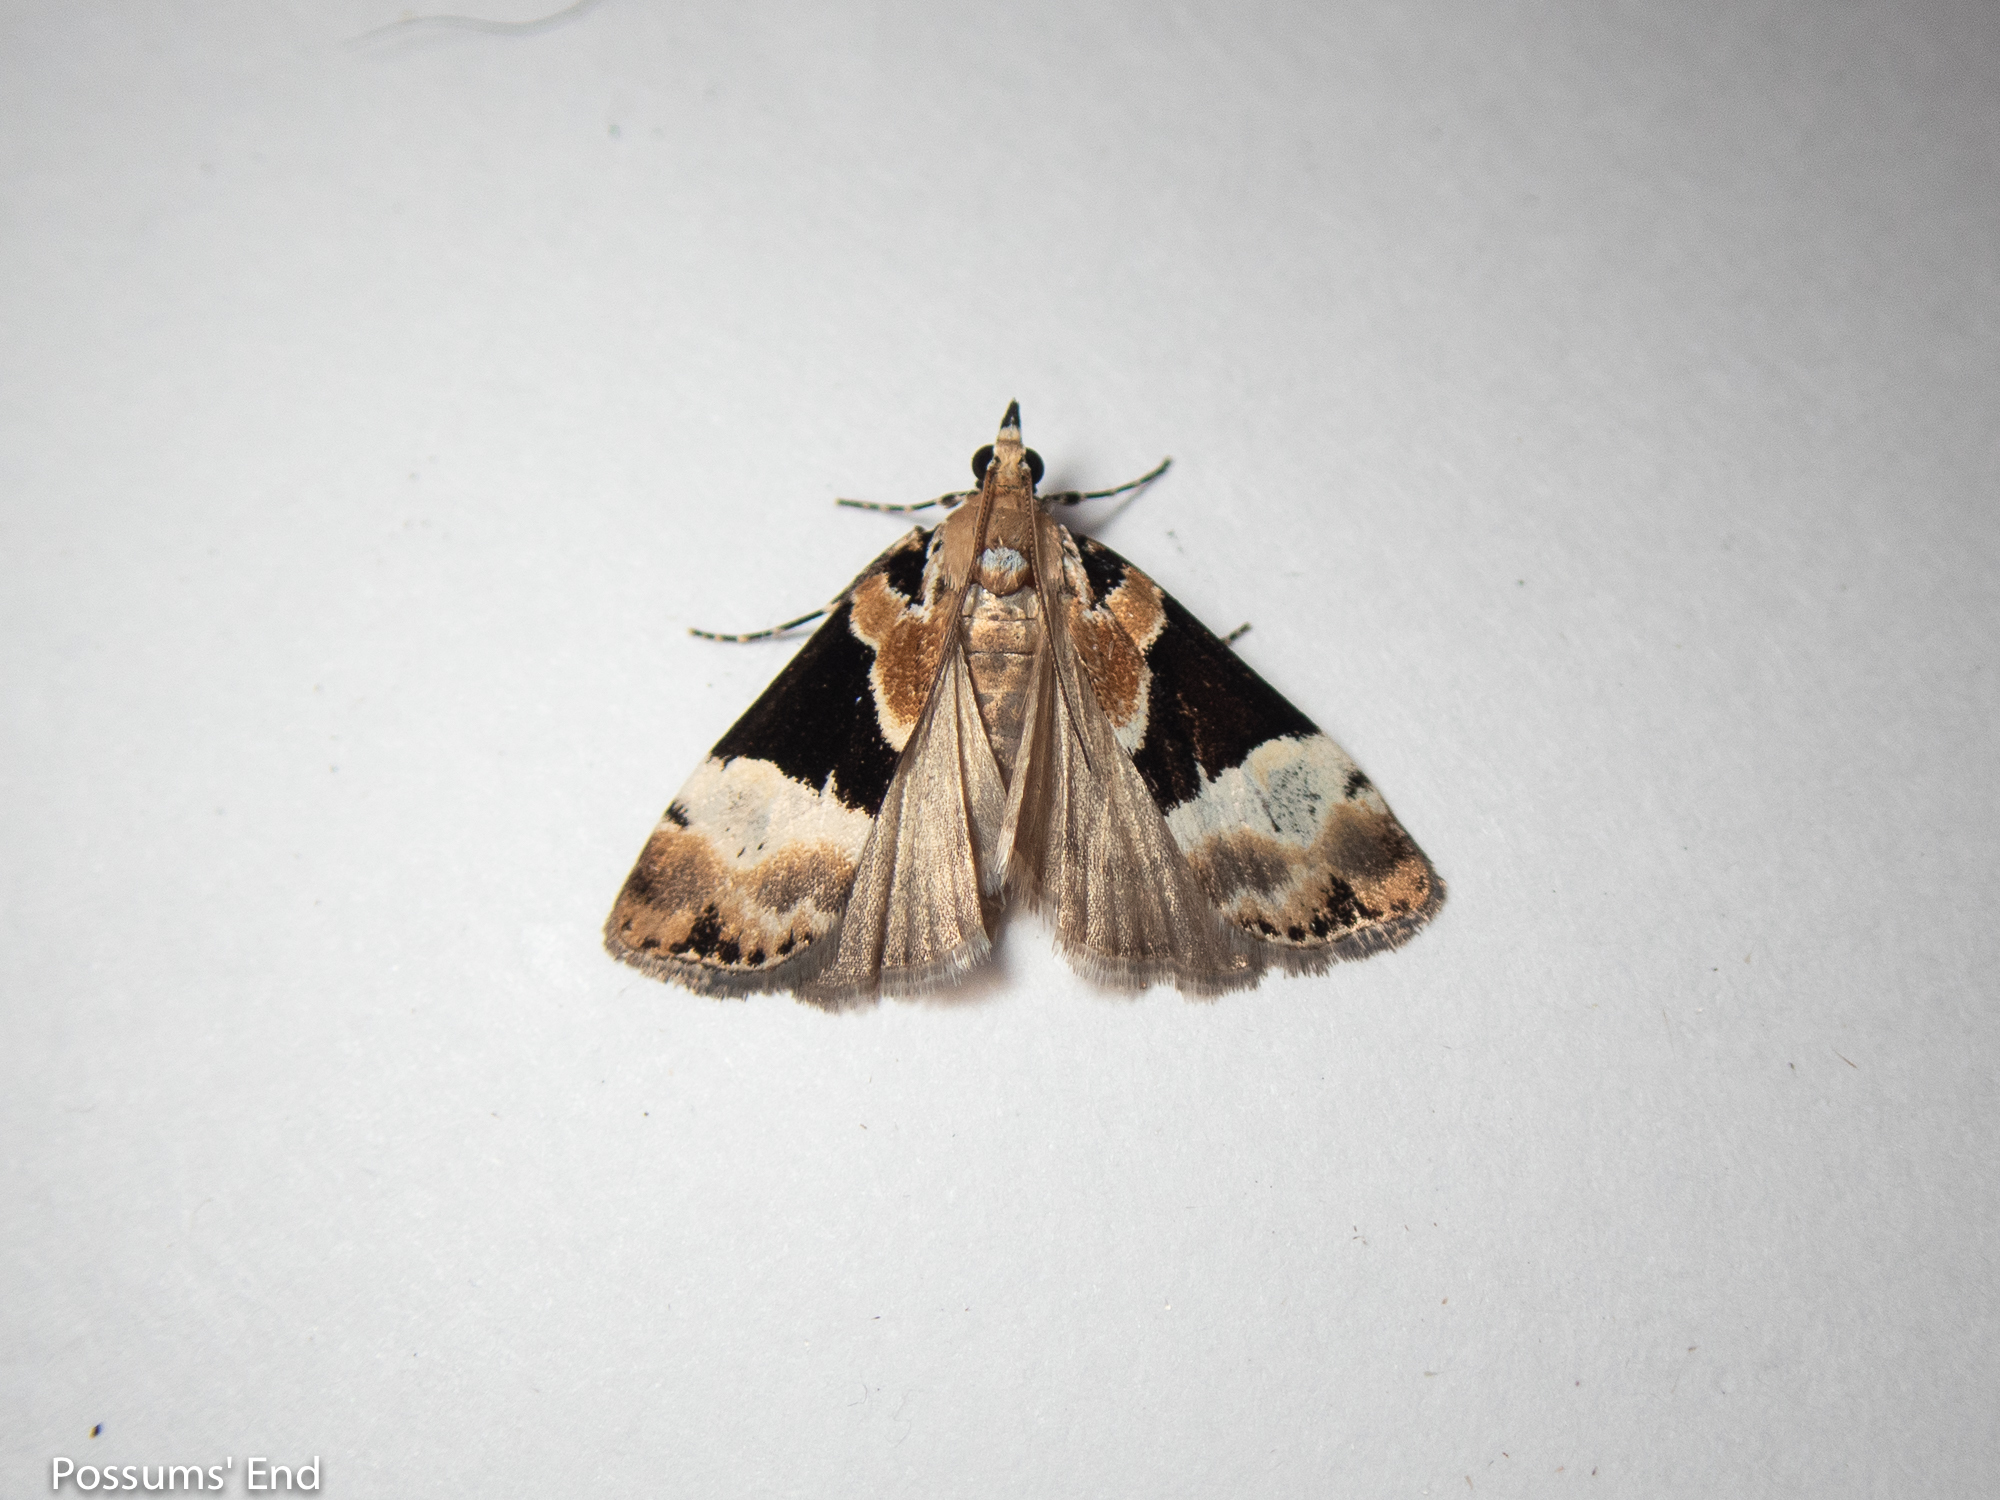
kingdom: Animalia
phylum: Arthropoda
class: Insecta
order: Lepidoptera
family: Crambidae
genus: Eudonia
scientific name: Eudonia aspidota
